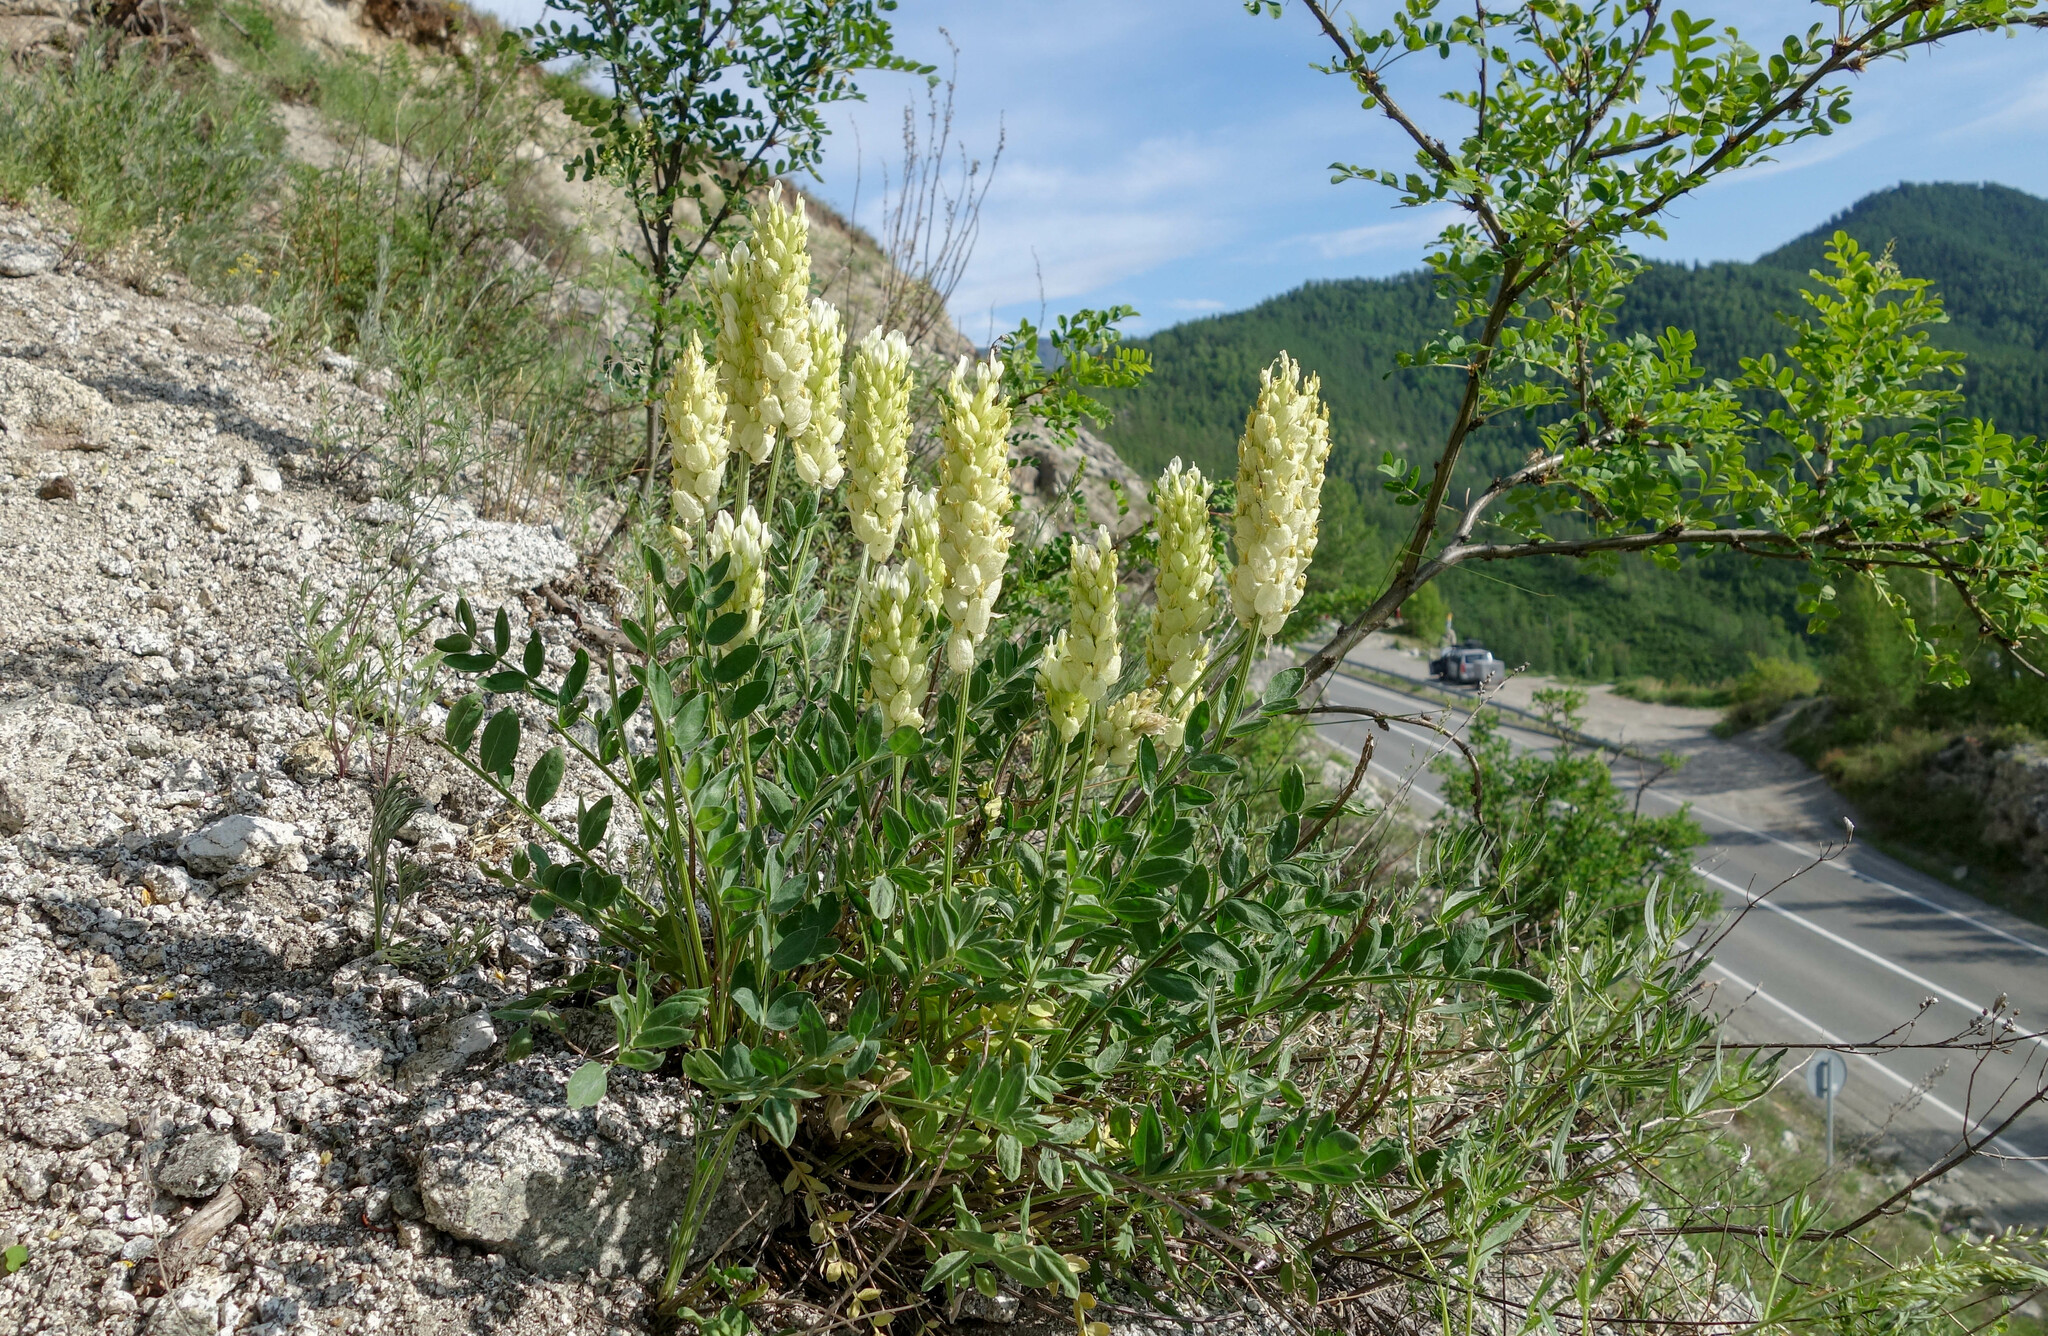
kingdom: Plantae
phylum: Tracheophyta
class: Magnoliopsida
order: Fabales
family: Fabaceae
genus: Astragalus
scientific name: Astragalus follicularis
